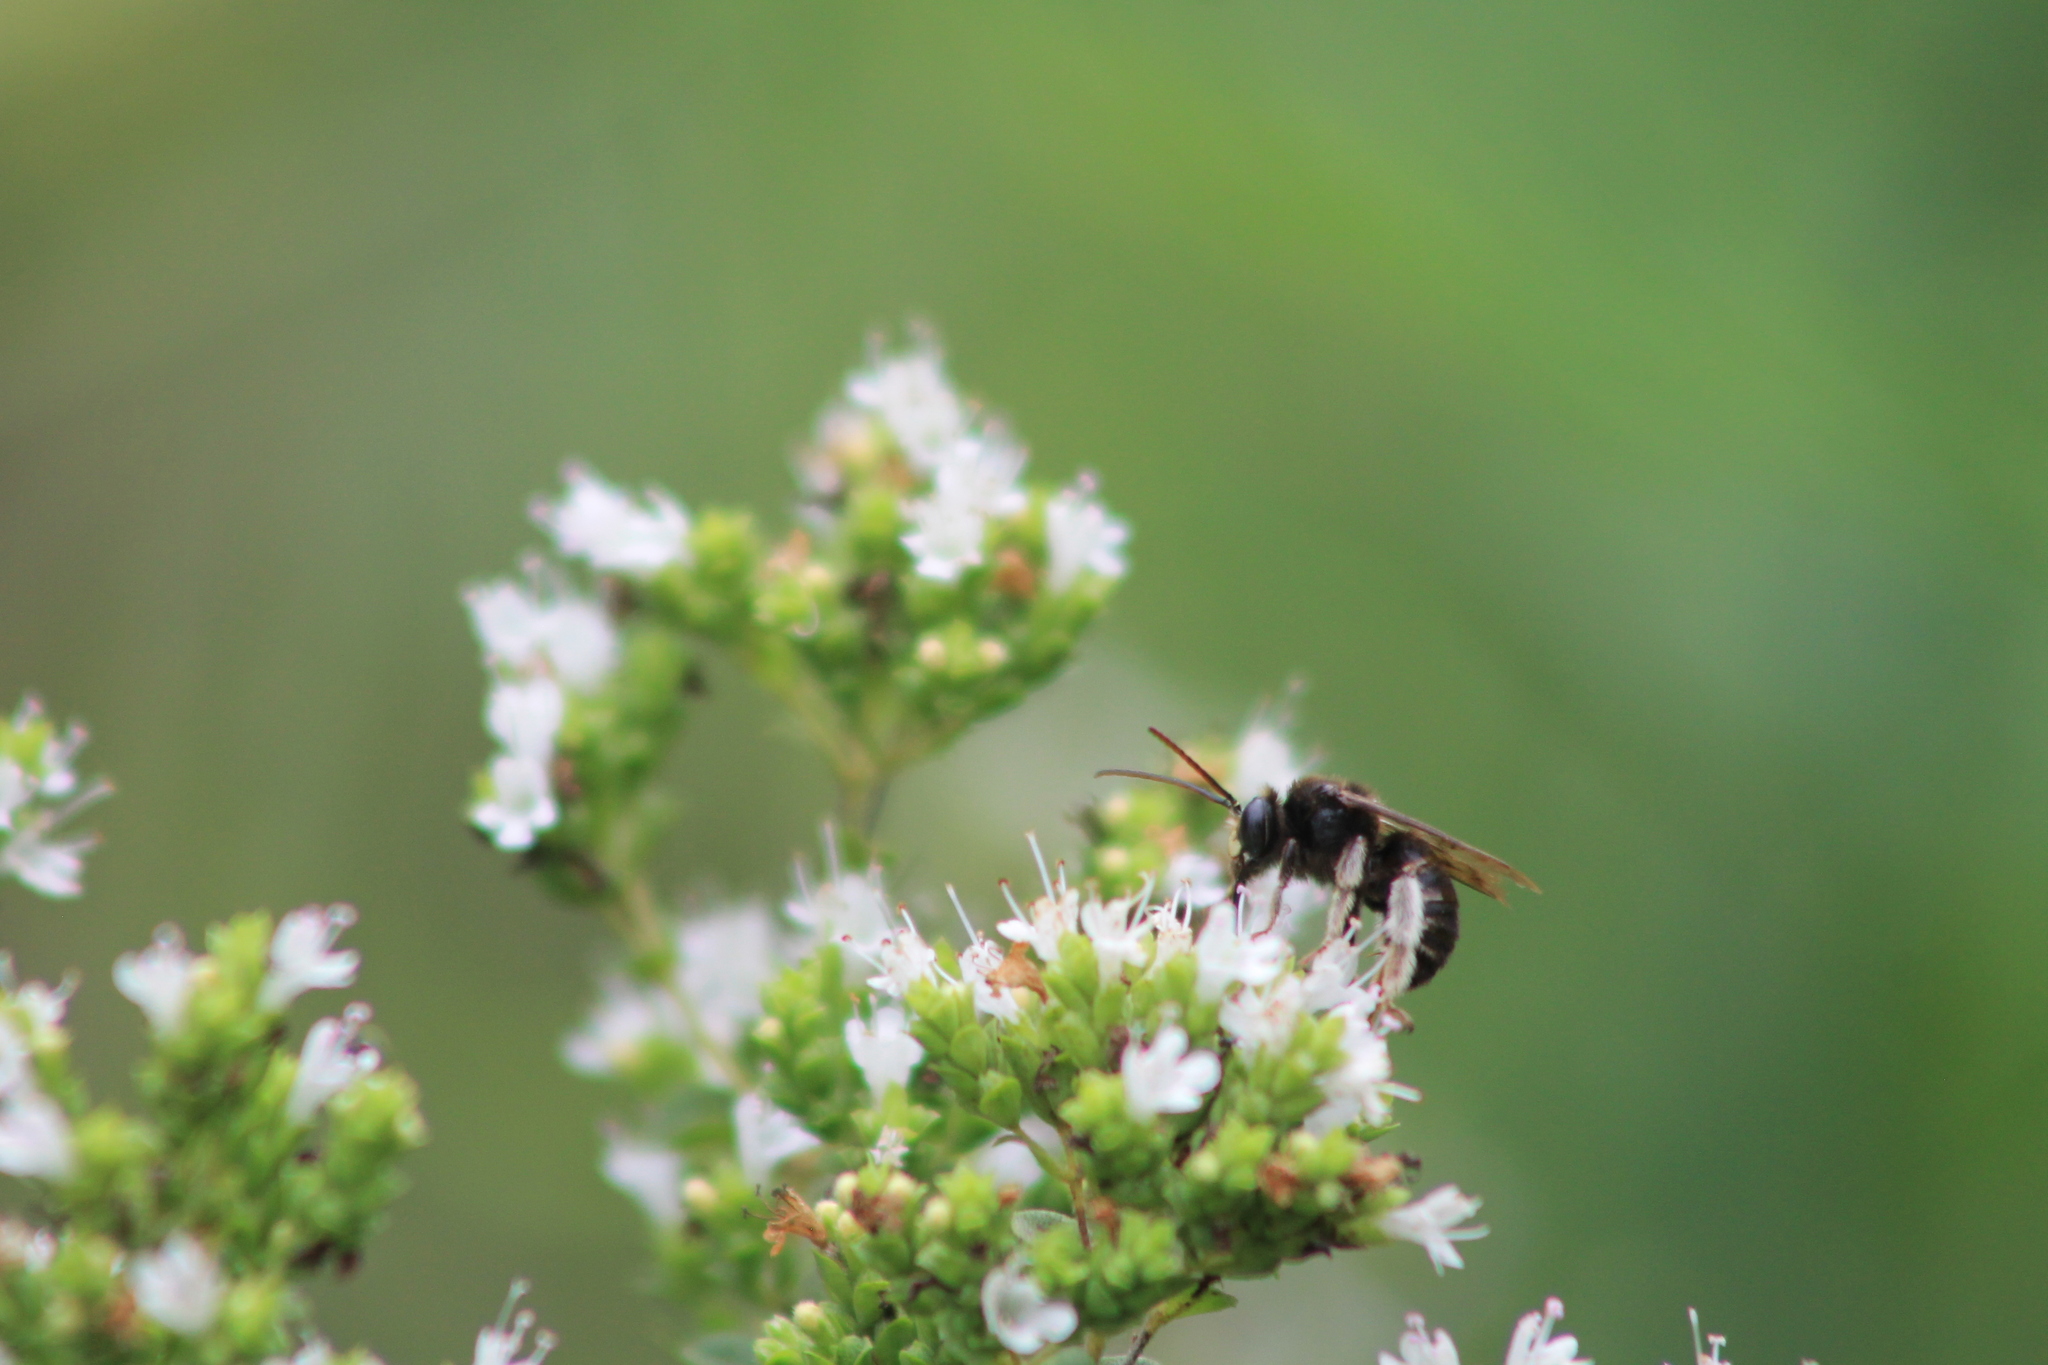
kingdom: Animalia
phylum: Arthropoda
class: Insecta
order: Hymenoptera
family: Apidae
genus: Melissodes
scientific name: Melissodes bimaculatus
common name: Two-spotted long-horned bee
